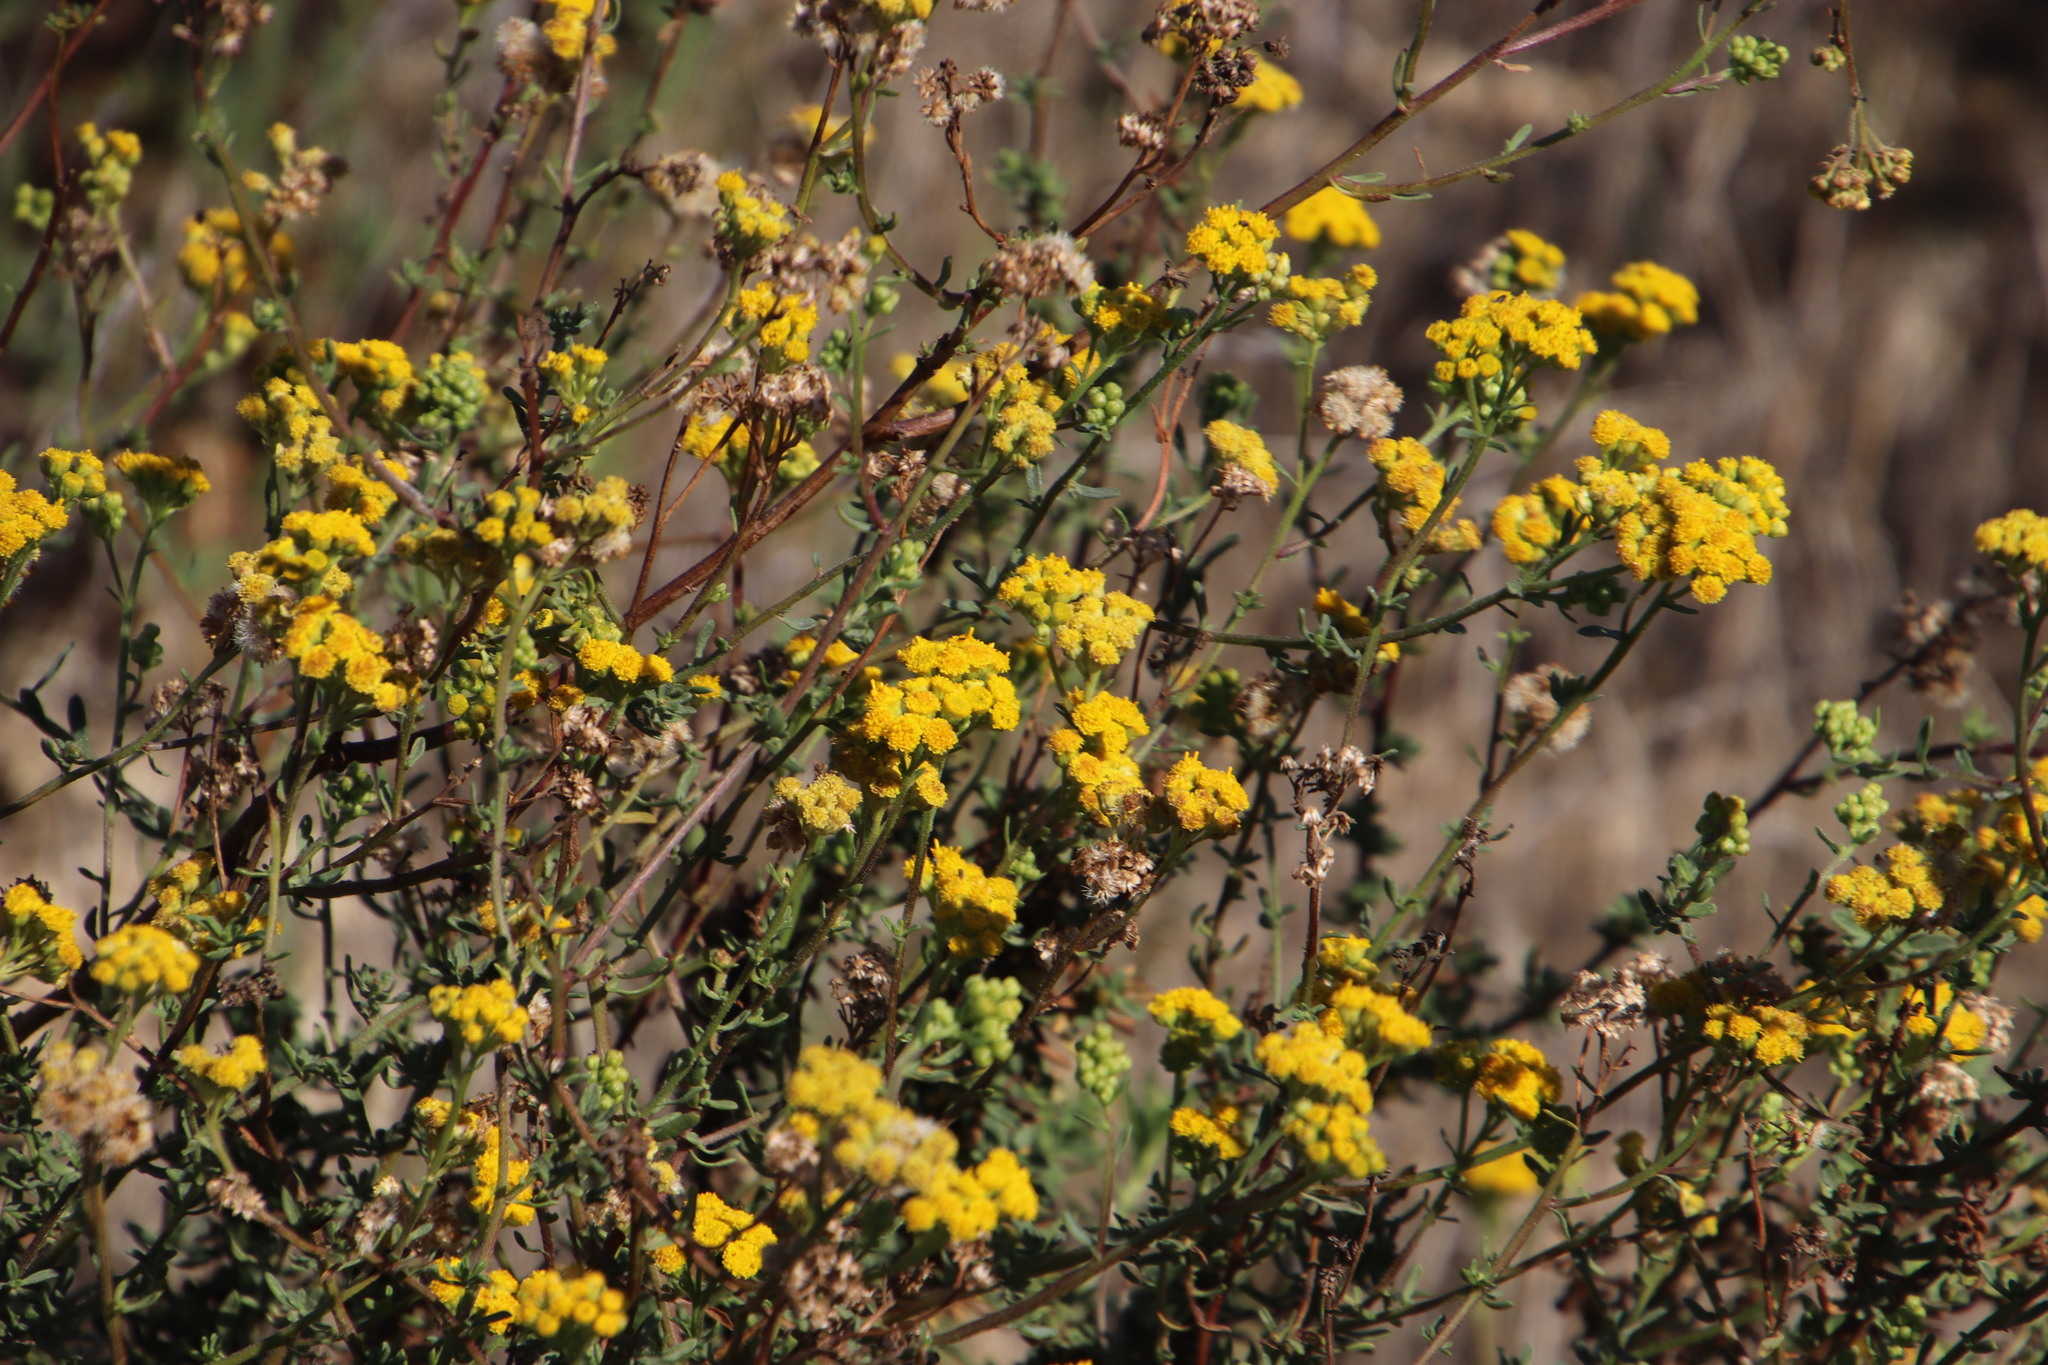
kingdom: Plantae
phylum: Tracheophyta
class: Magnoliopsida
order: Asterales
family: Asteraceae
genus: Nidorella
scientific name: Nidorella foetida
